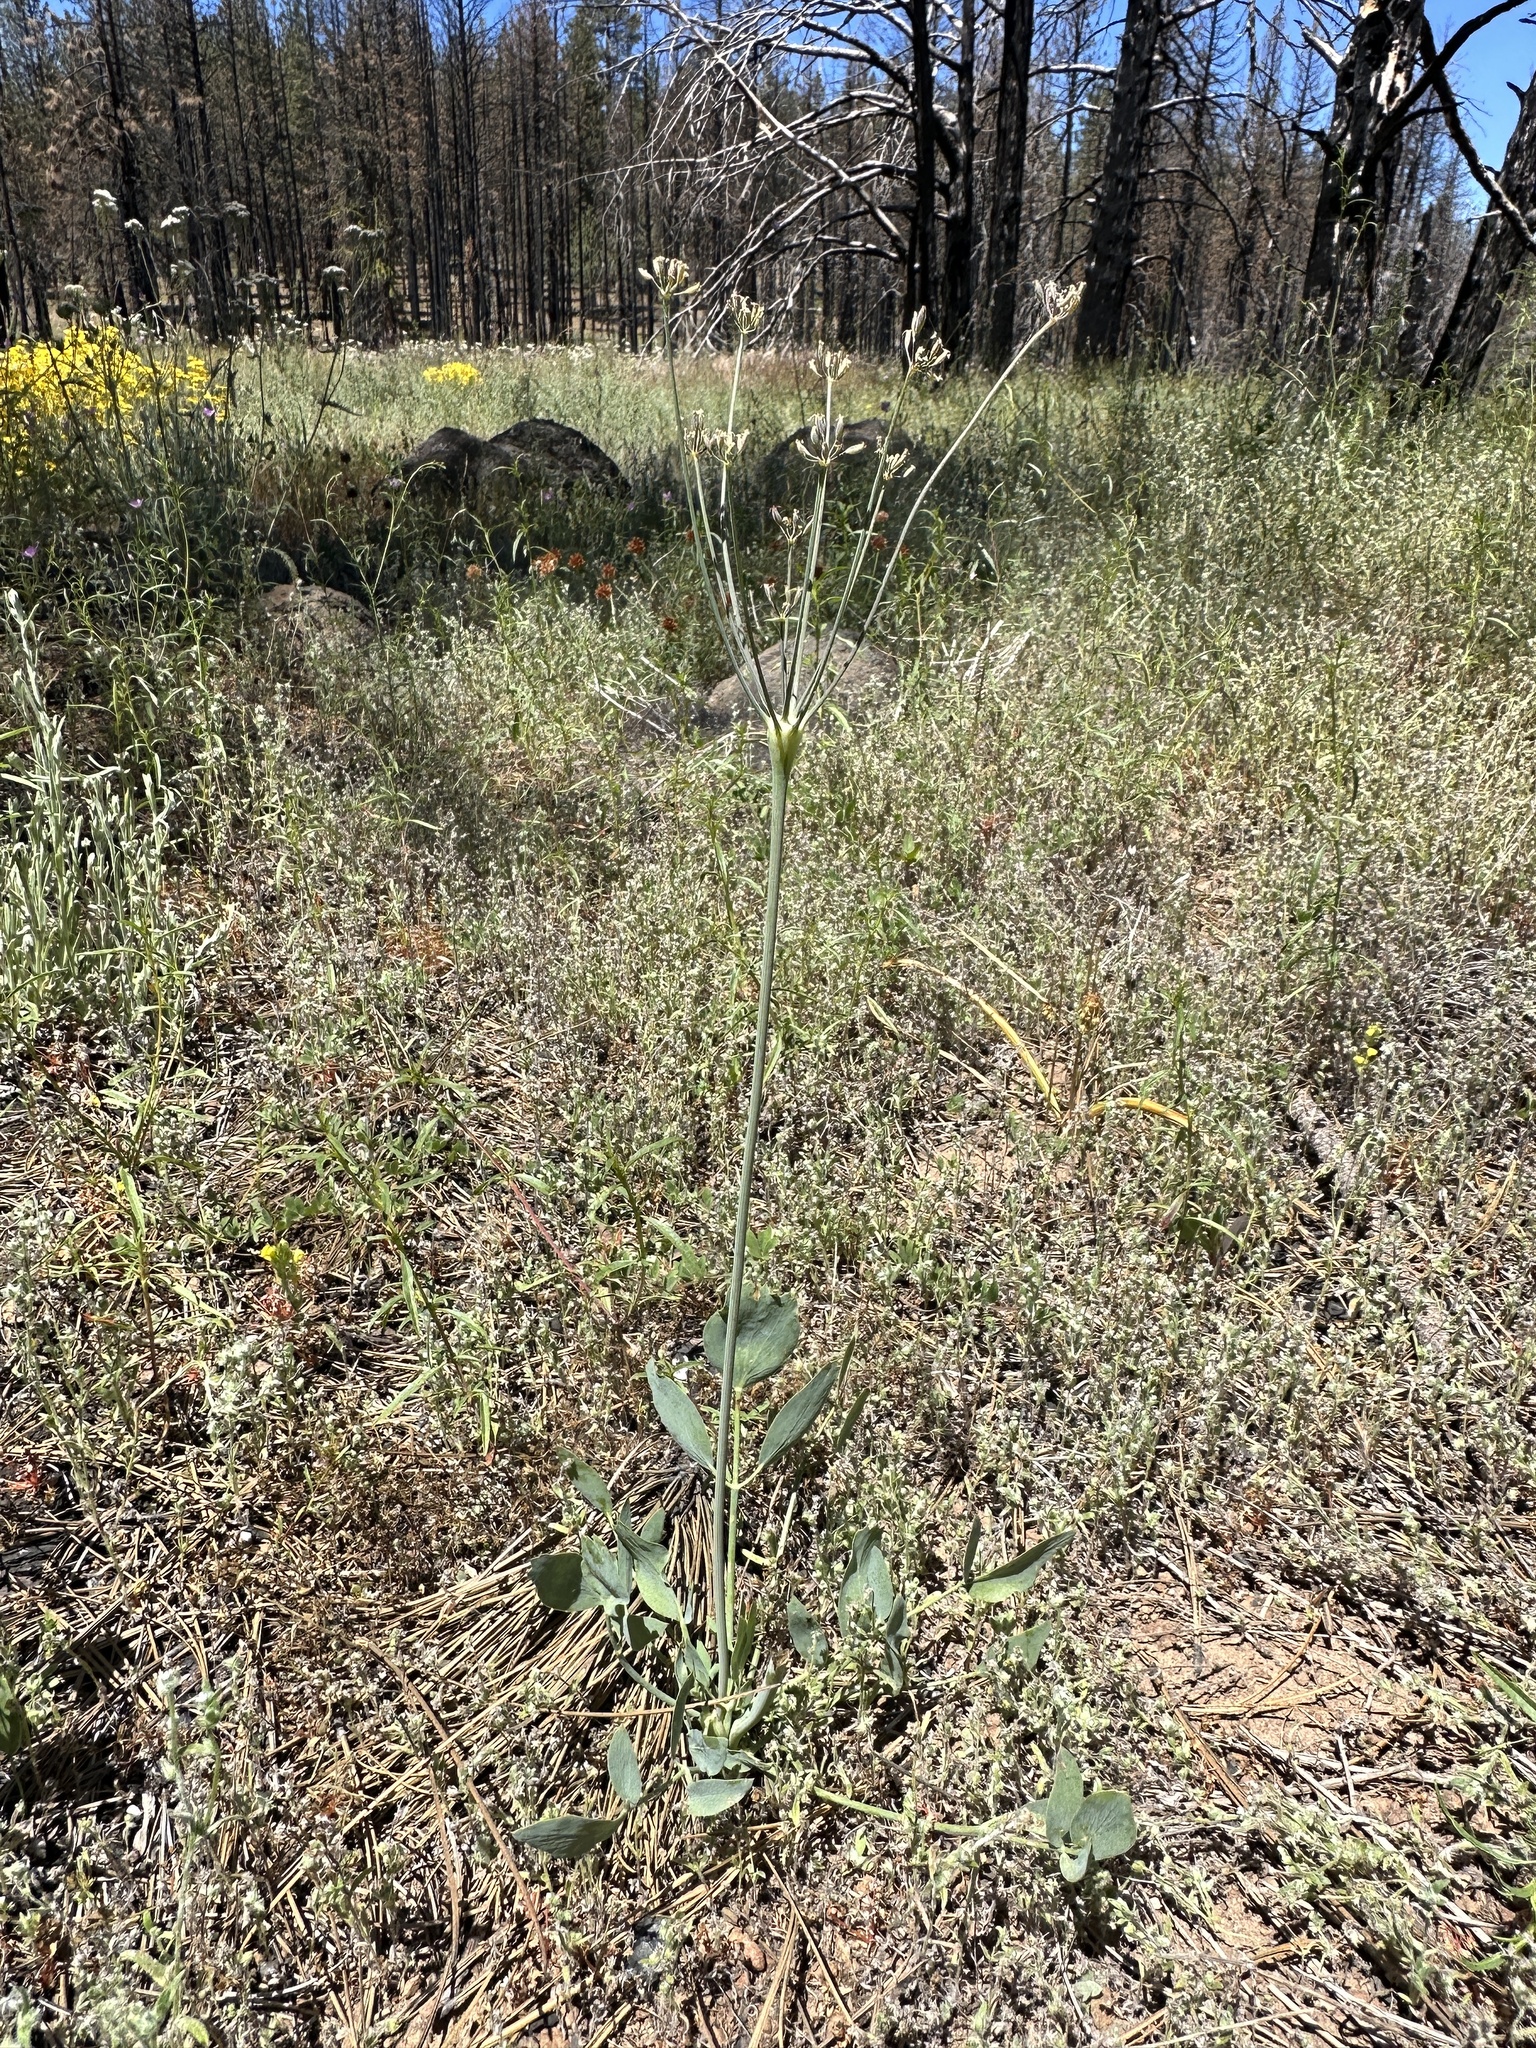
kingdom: Plantae
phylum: Tracheophyta
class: Magnoliopsida
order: Apiales
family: Apiaceae
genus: Lomatium
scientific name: Lomatium nudicaule
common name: Pestle lomatium
